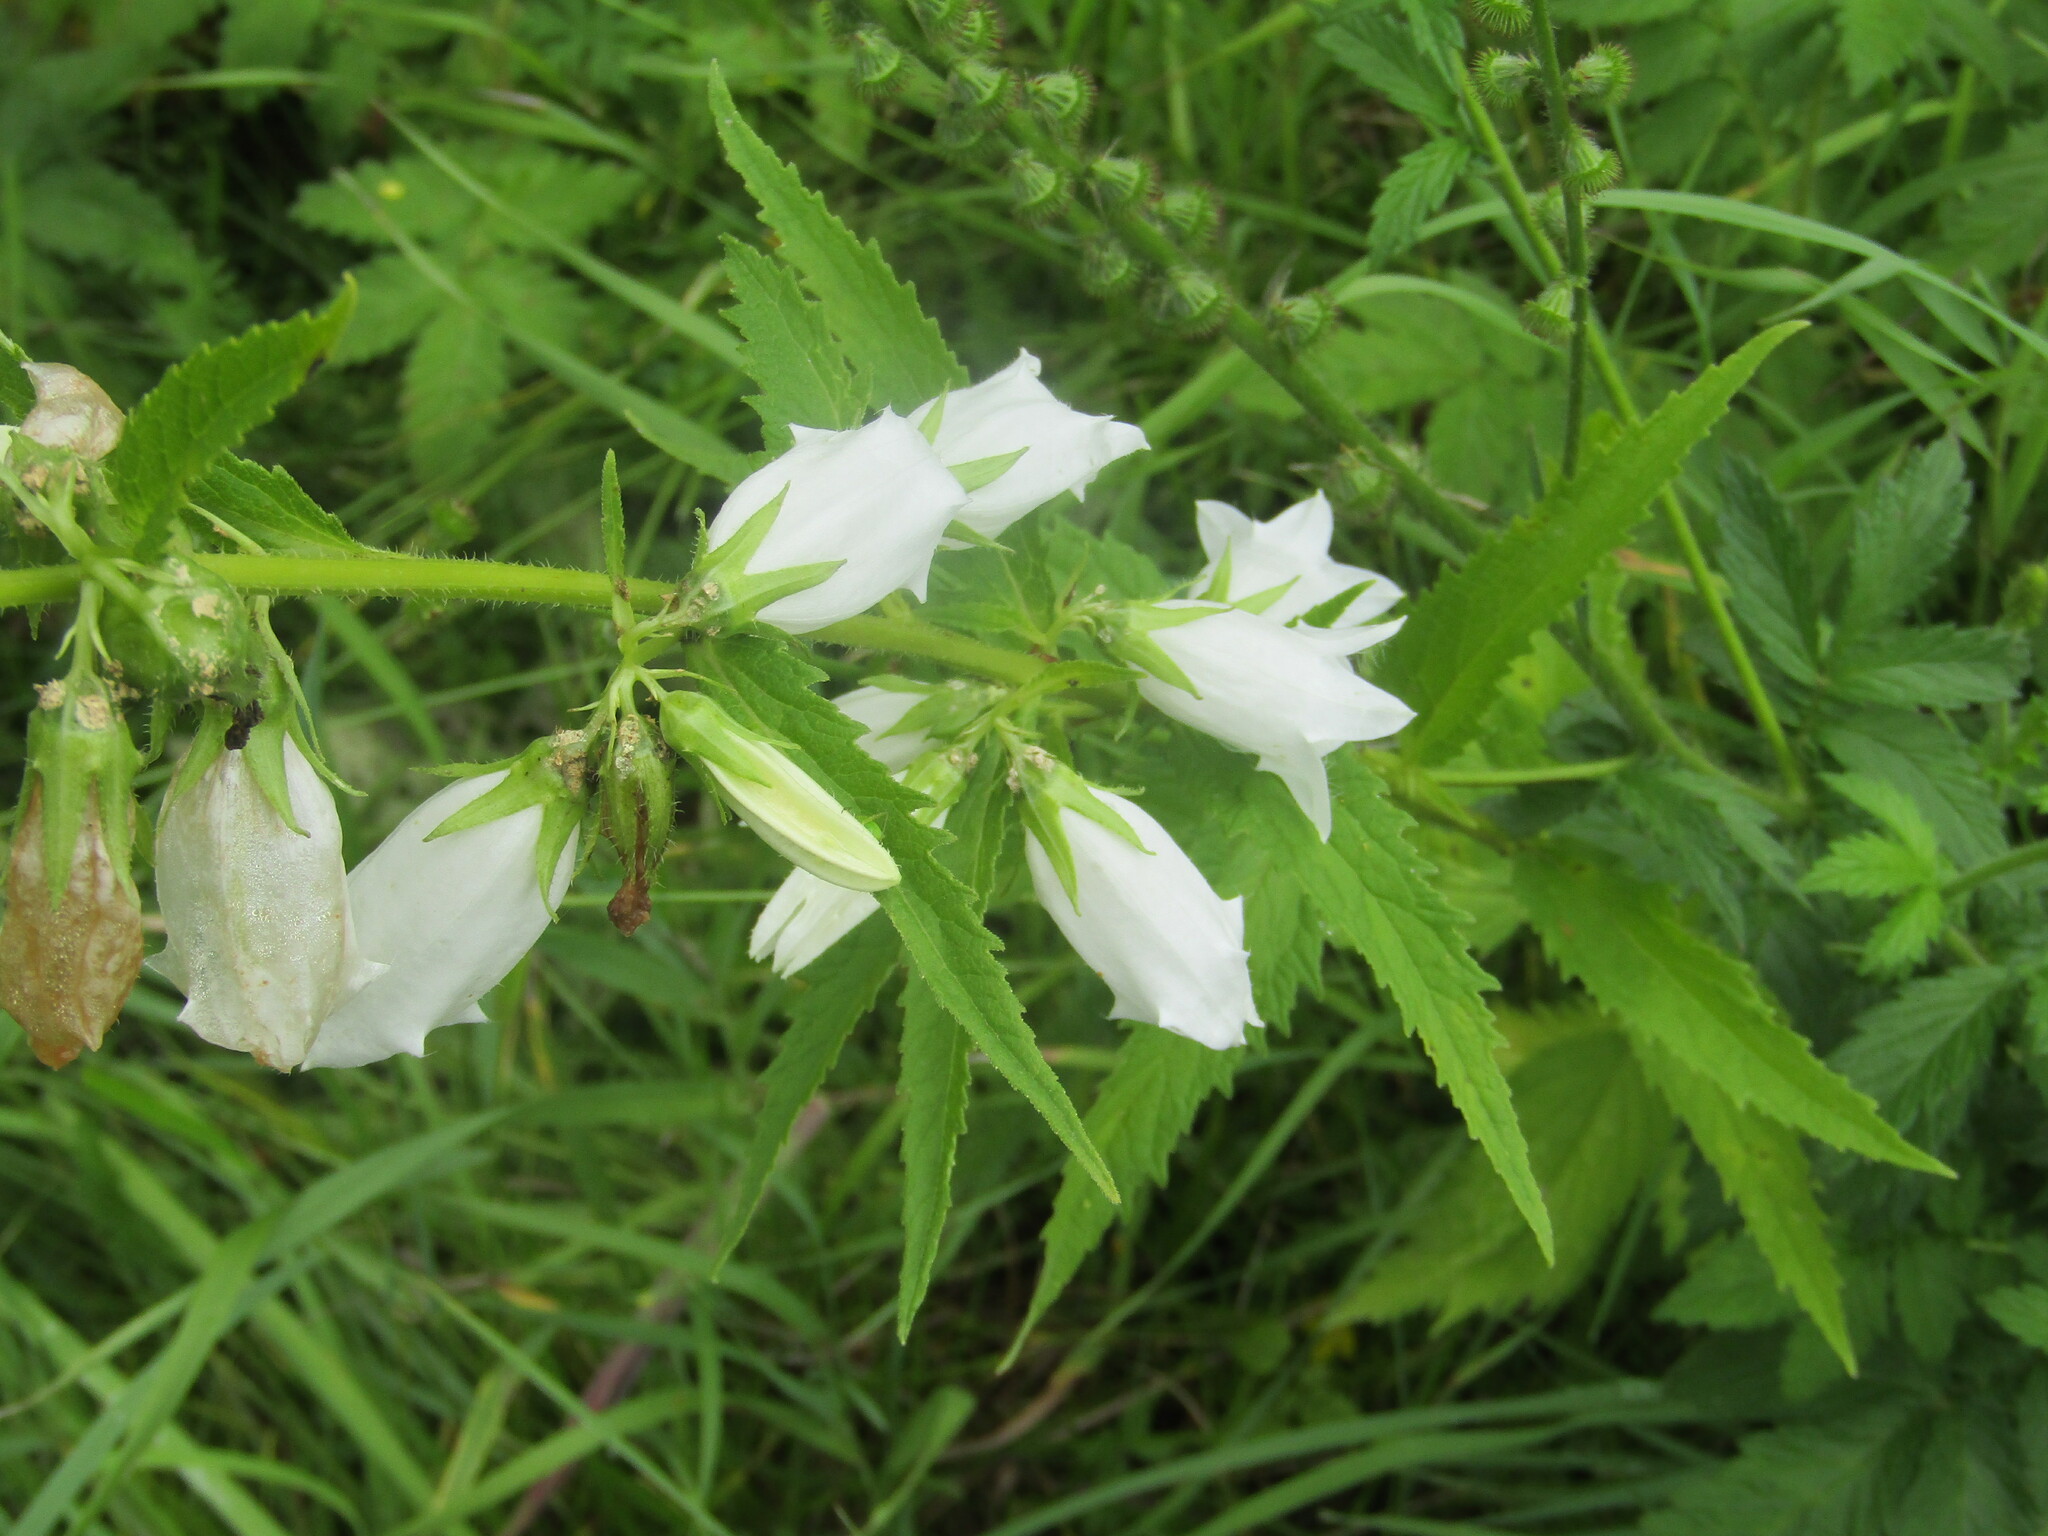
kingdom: Plantae
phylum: Tracheophyta
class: Magnoliopsida
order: Asterales
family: Campanulaceae
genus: Campanula
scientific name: Campanula trachelium
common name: Nettle-leaved bellflower
